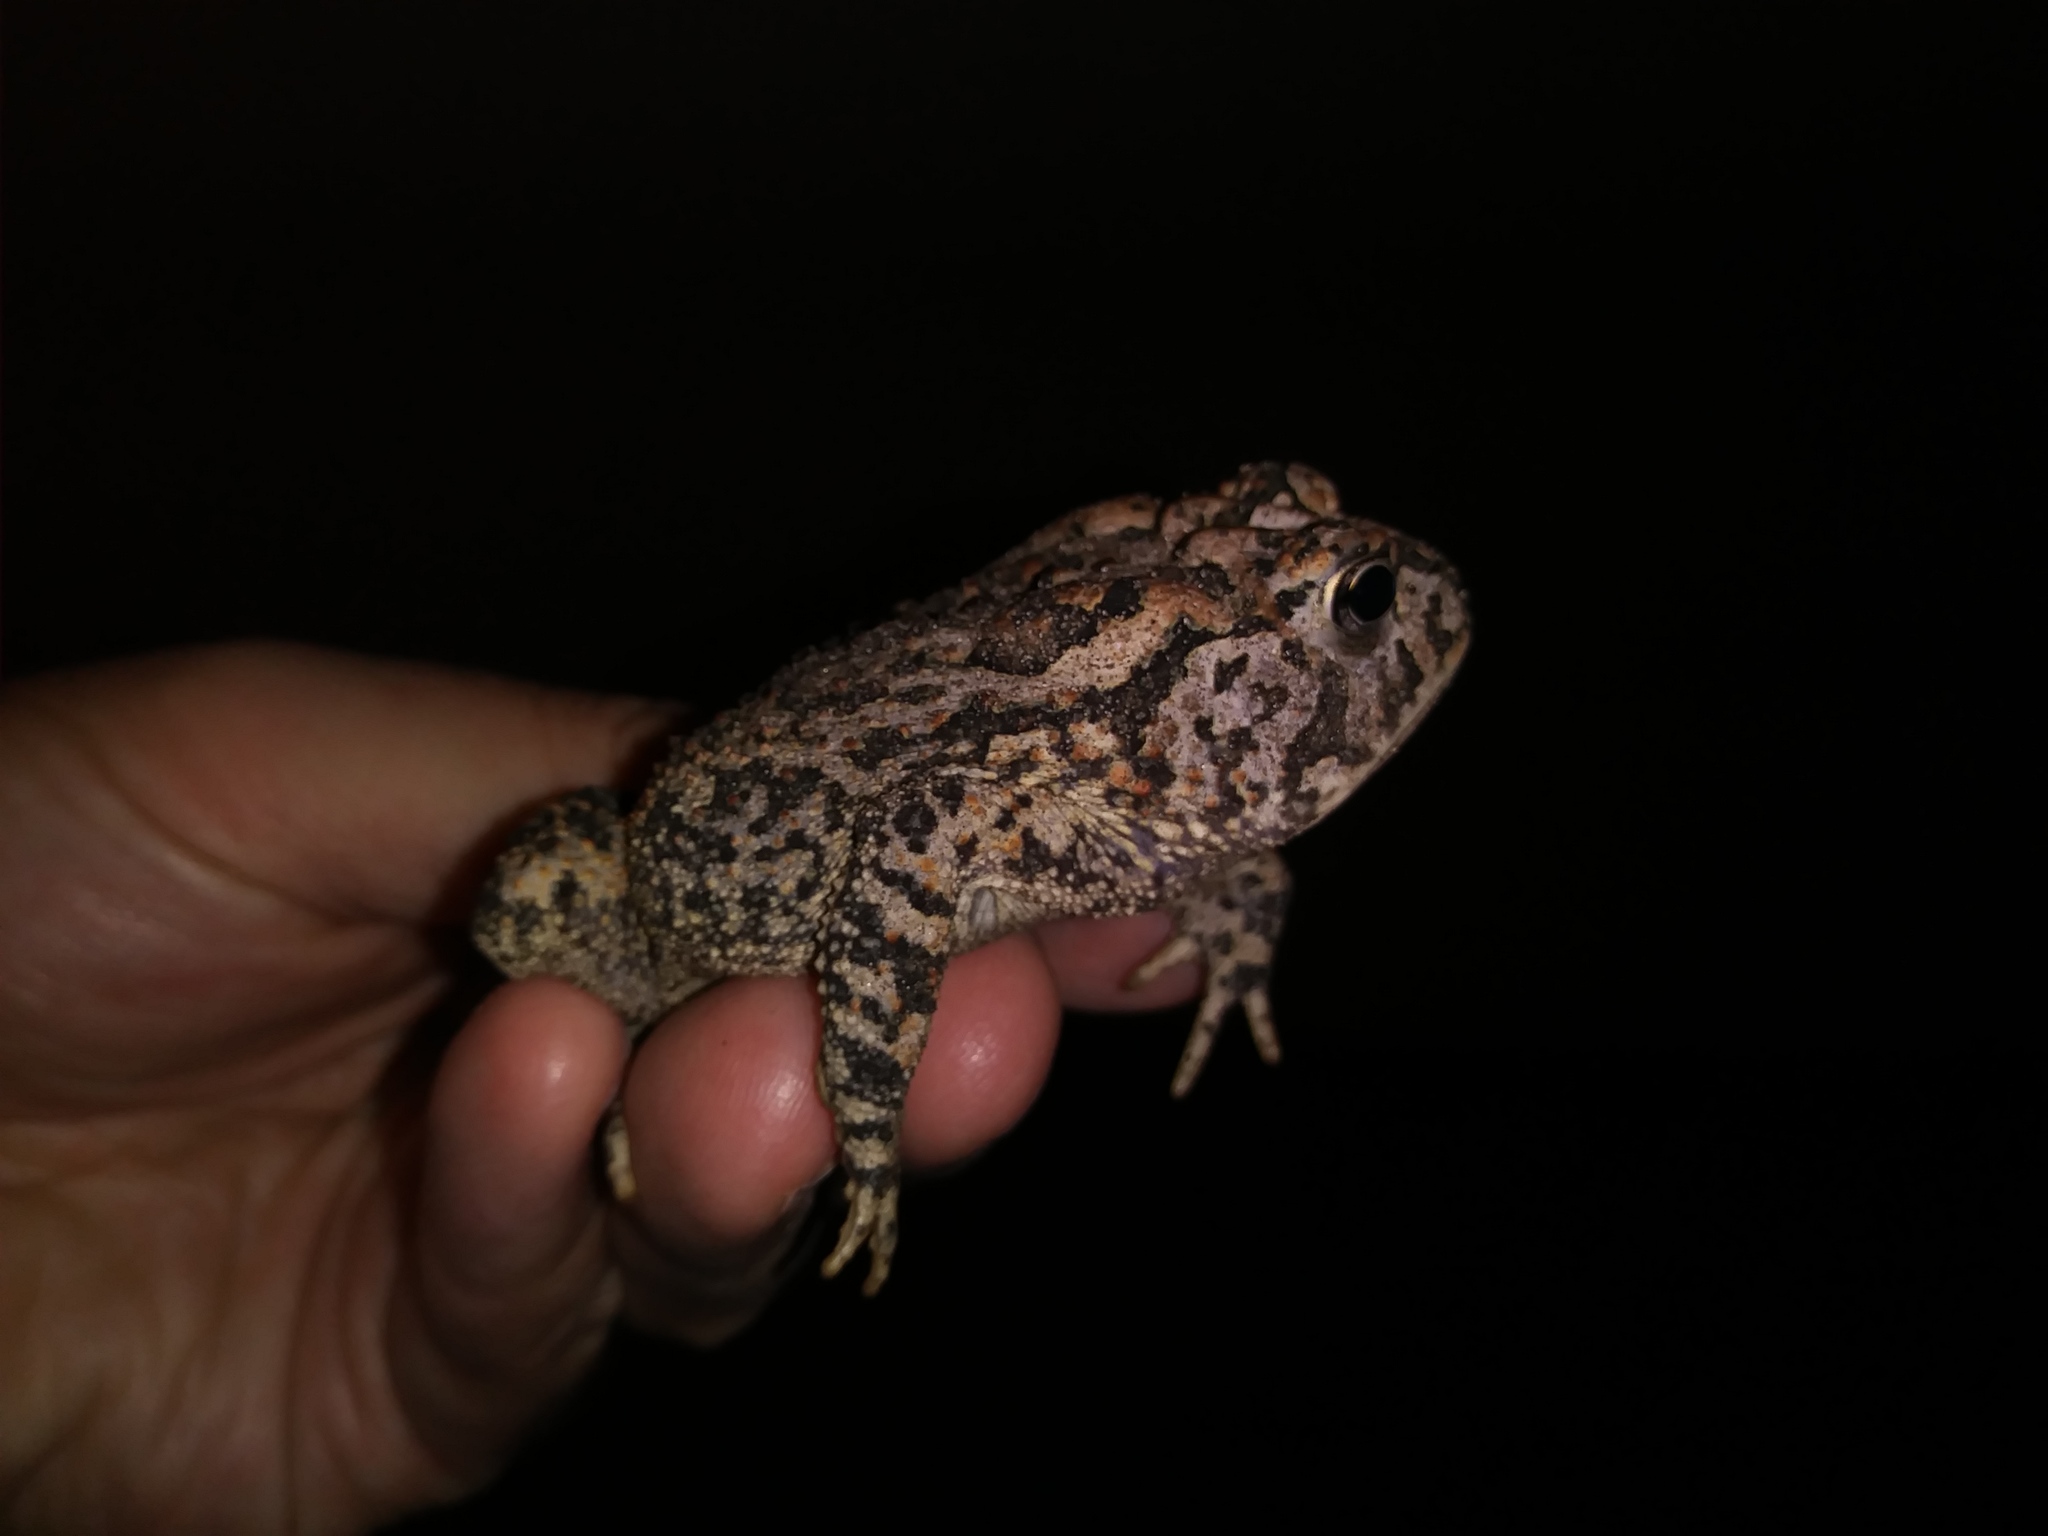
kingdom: Animalia
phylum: Chordata
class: Amphibia
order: Anura
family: Bufonidae
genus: Anaxyrus
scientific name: Anaxyrus terrestris
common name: Southern toad
